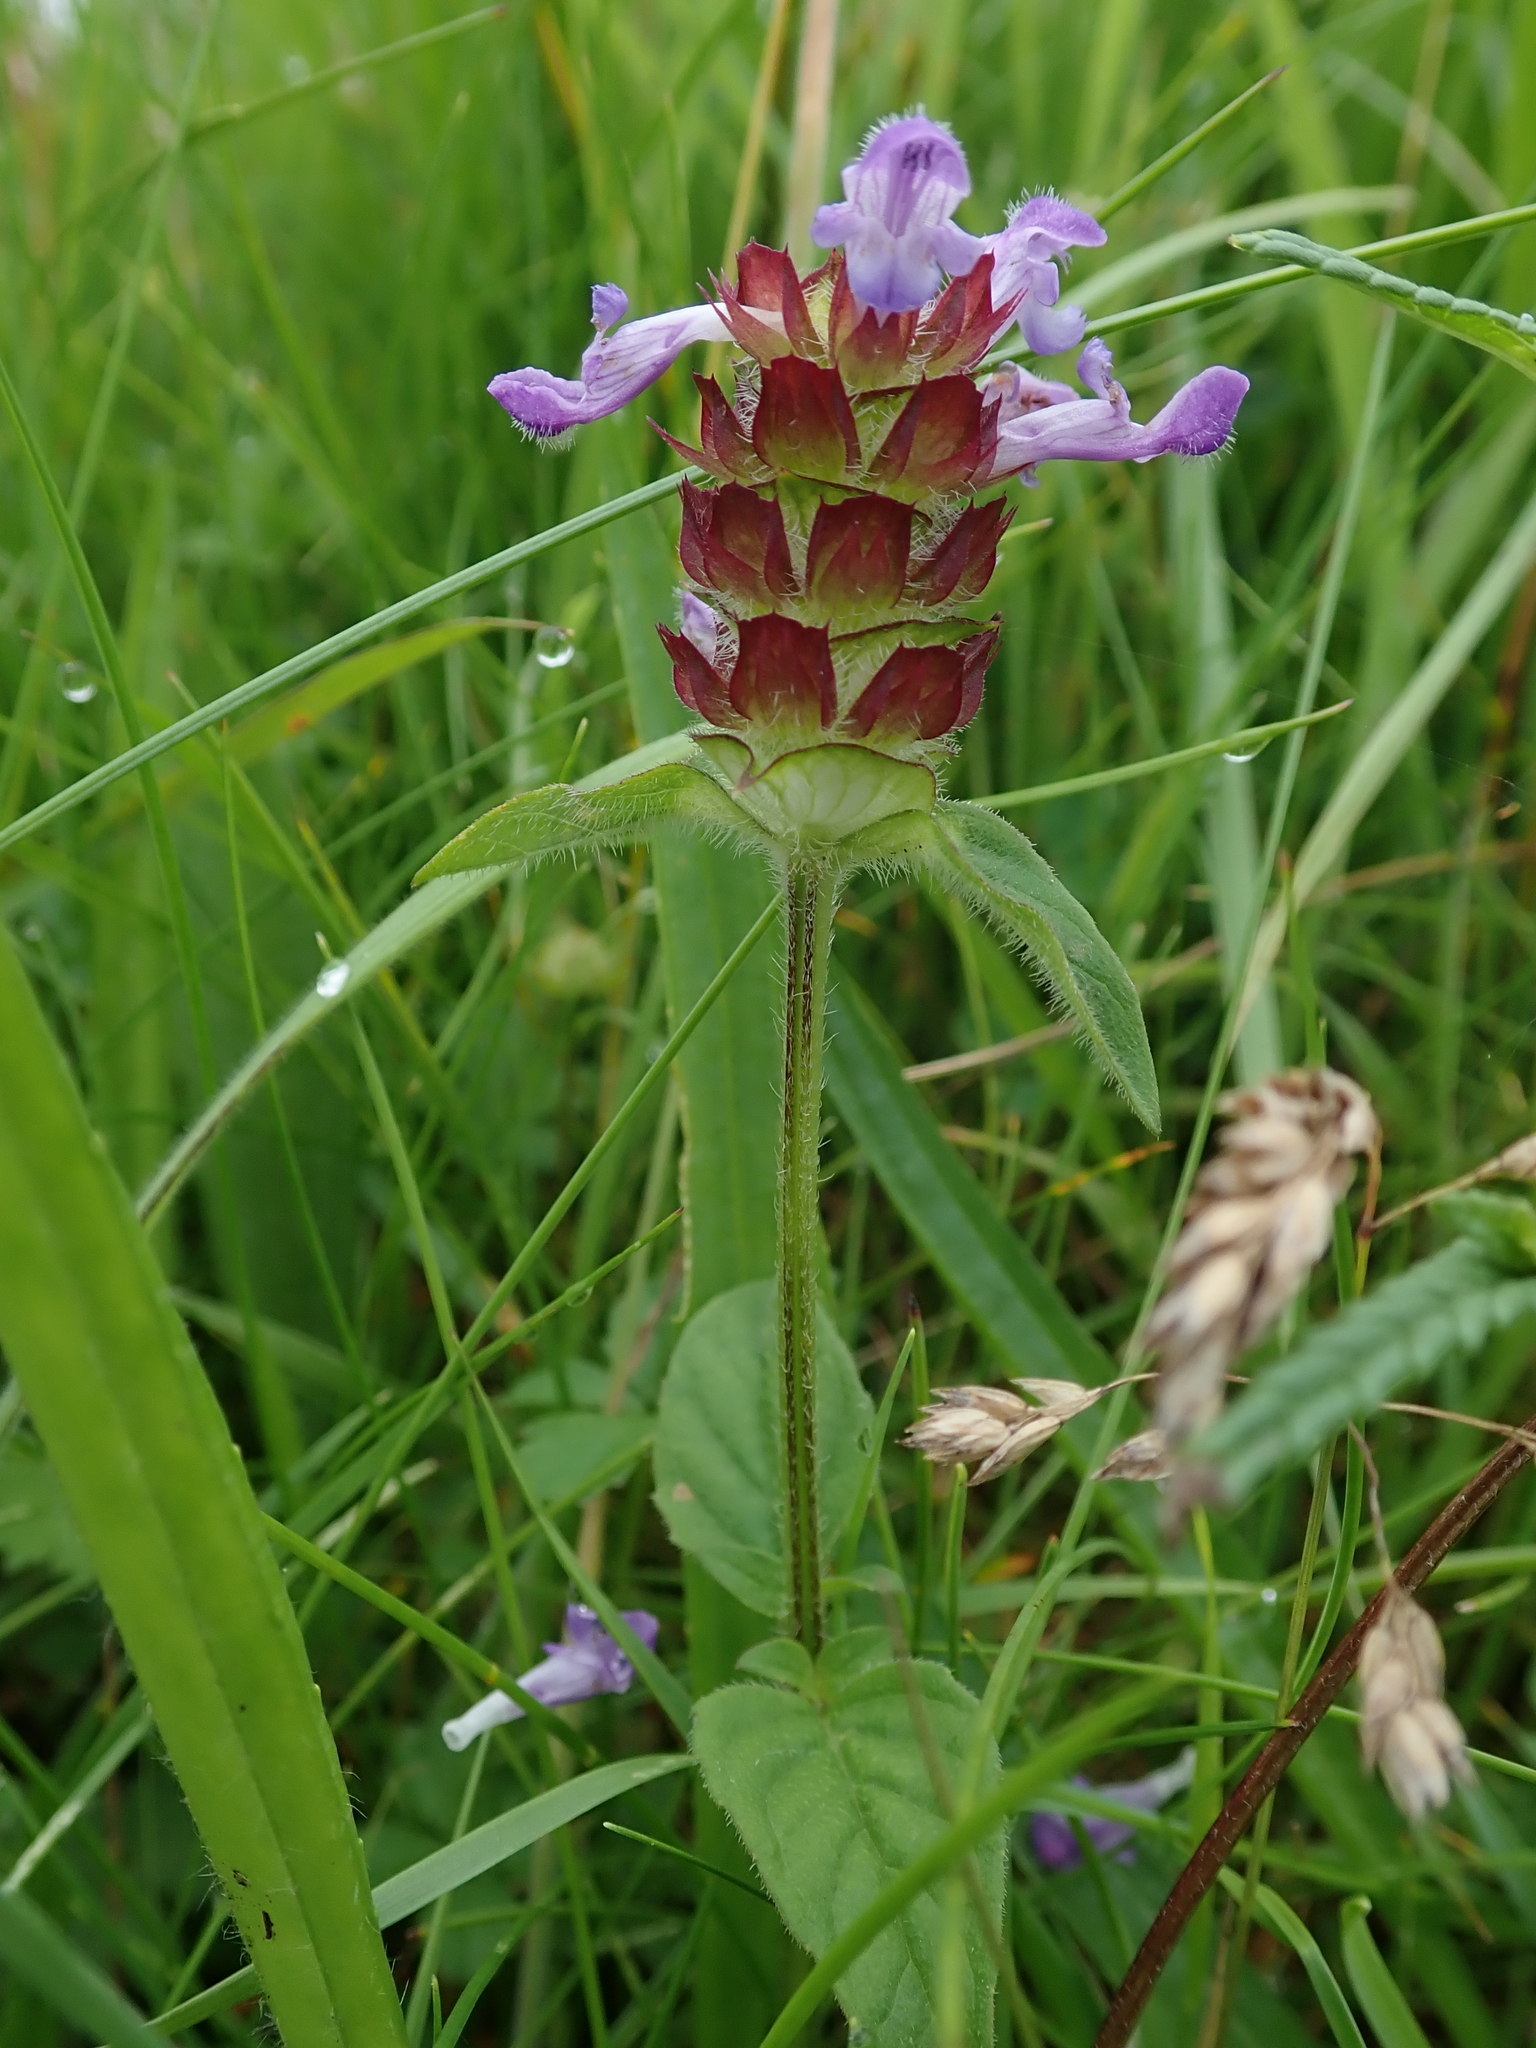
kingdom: Plantae
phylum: Tracheophyta
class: Magnoliopsida
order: Lamiales
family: Lamiaceae
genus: Prunella
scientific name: Prunella vulgaris
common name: Heal-all
